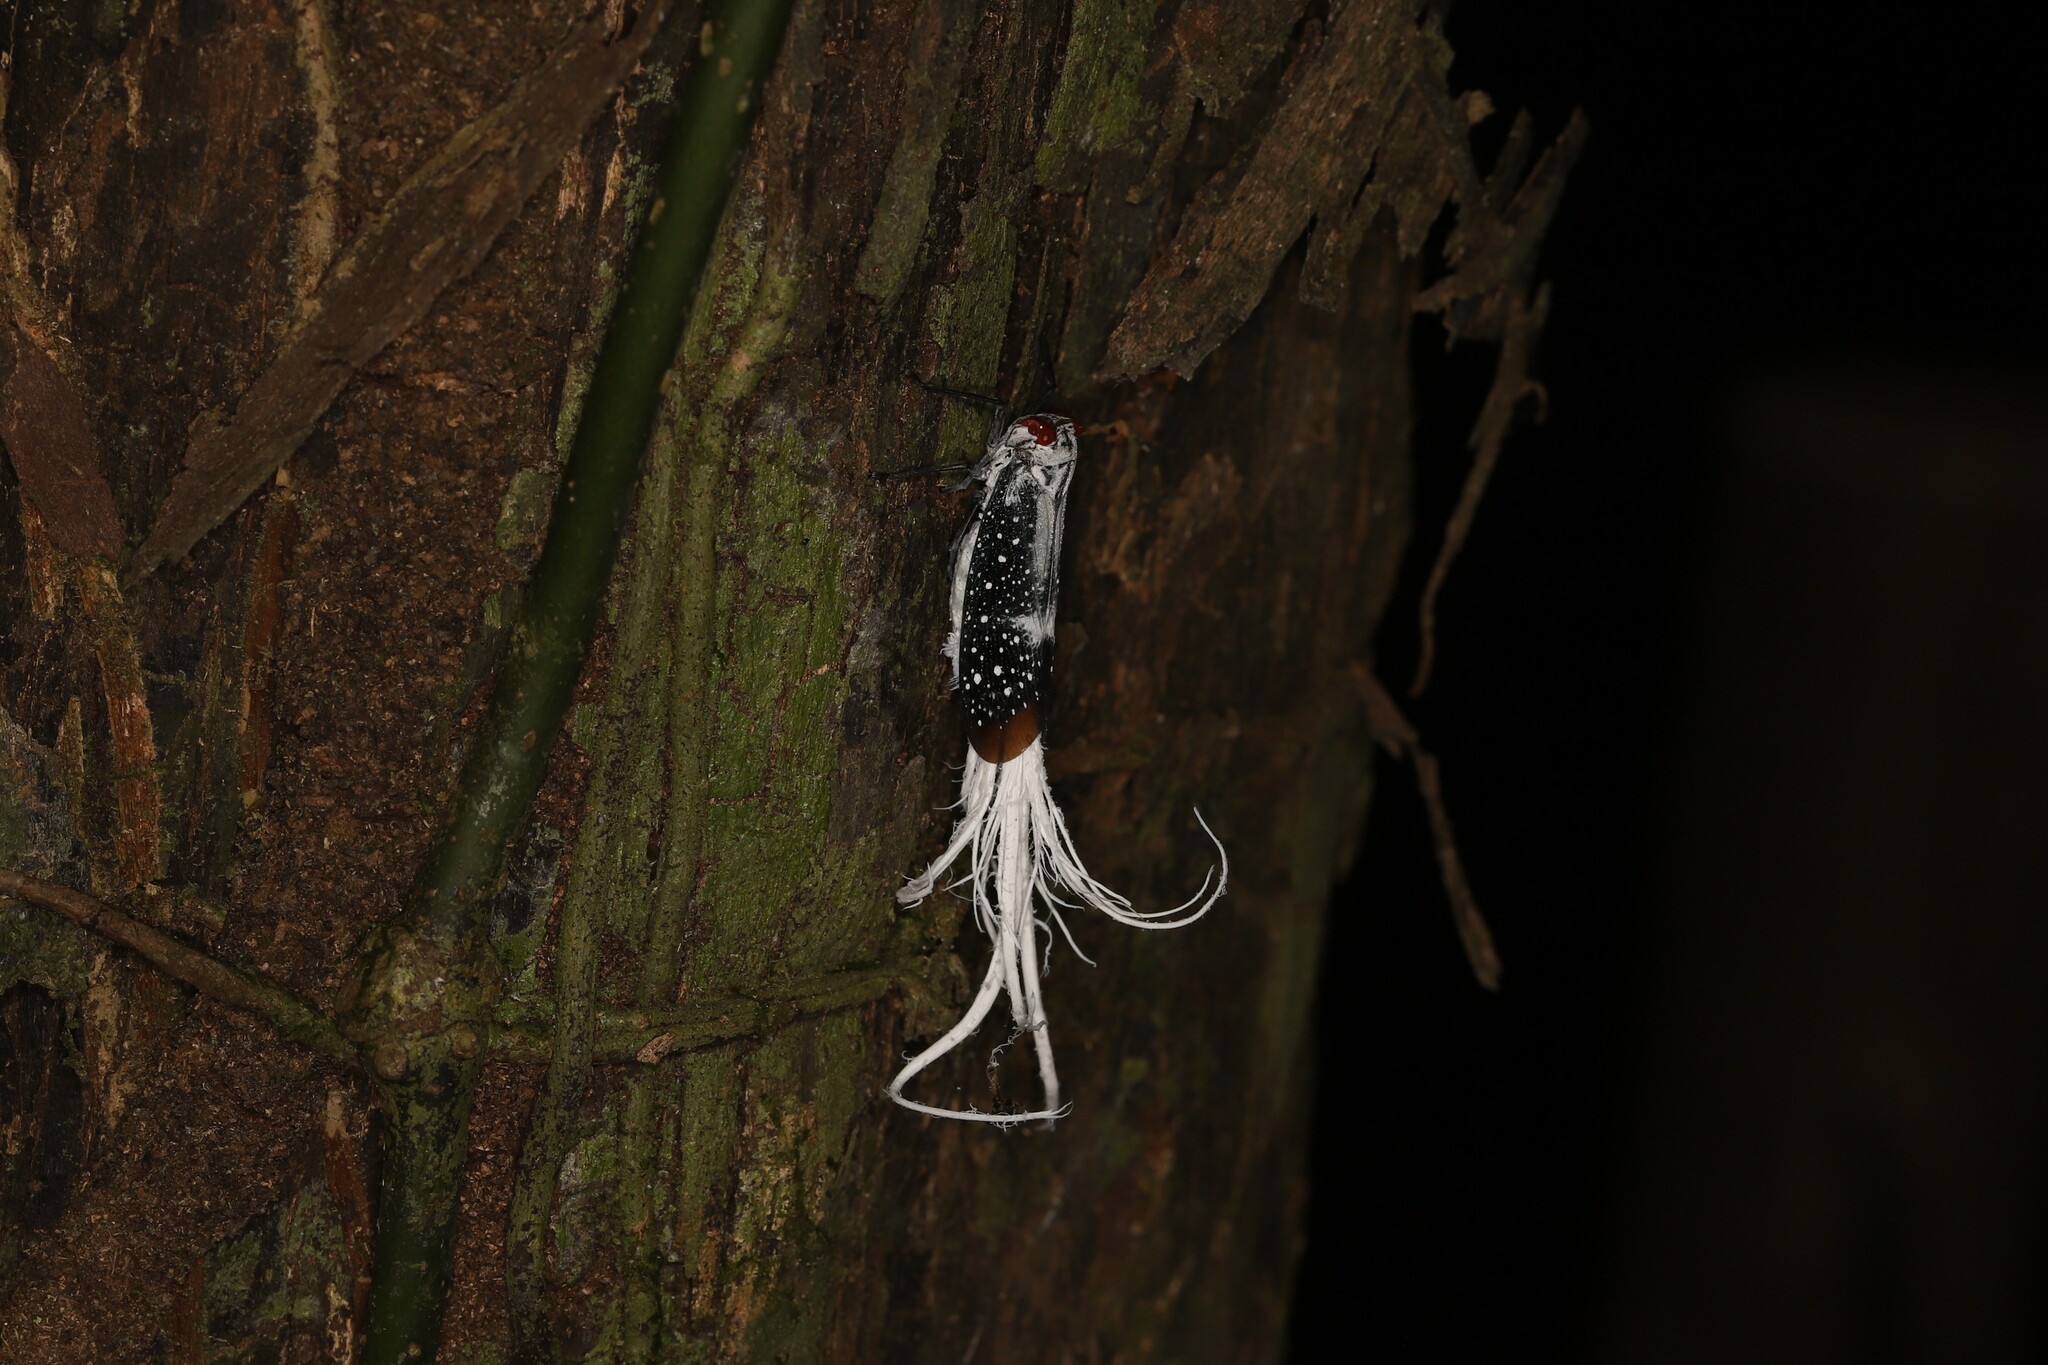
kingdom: Animalia
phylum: Arthropoda
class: Insecta
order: Hemiptera
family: Fulgoridae
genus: Lystra
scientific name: Lystra lanata
